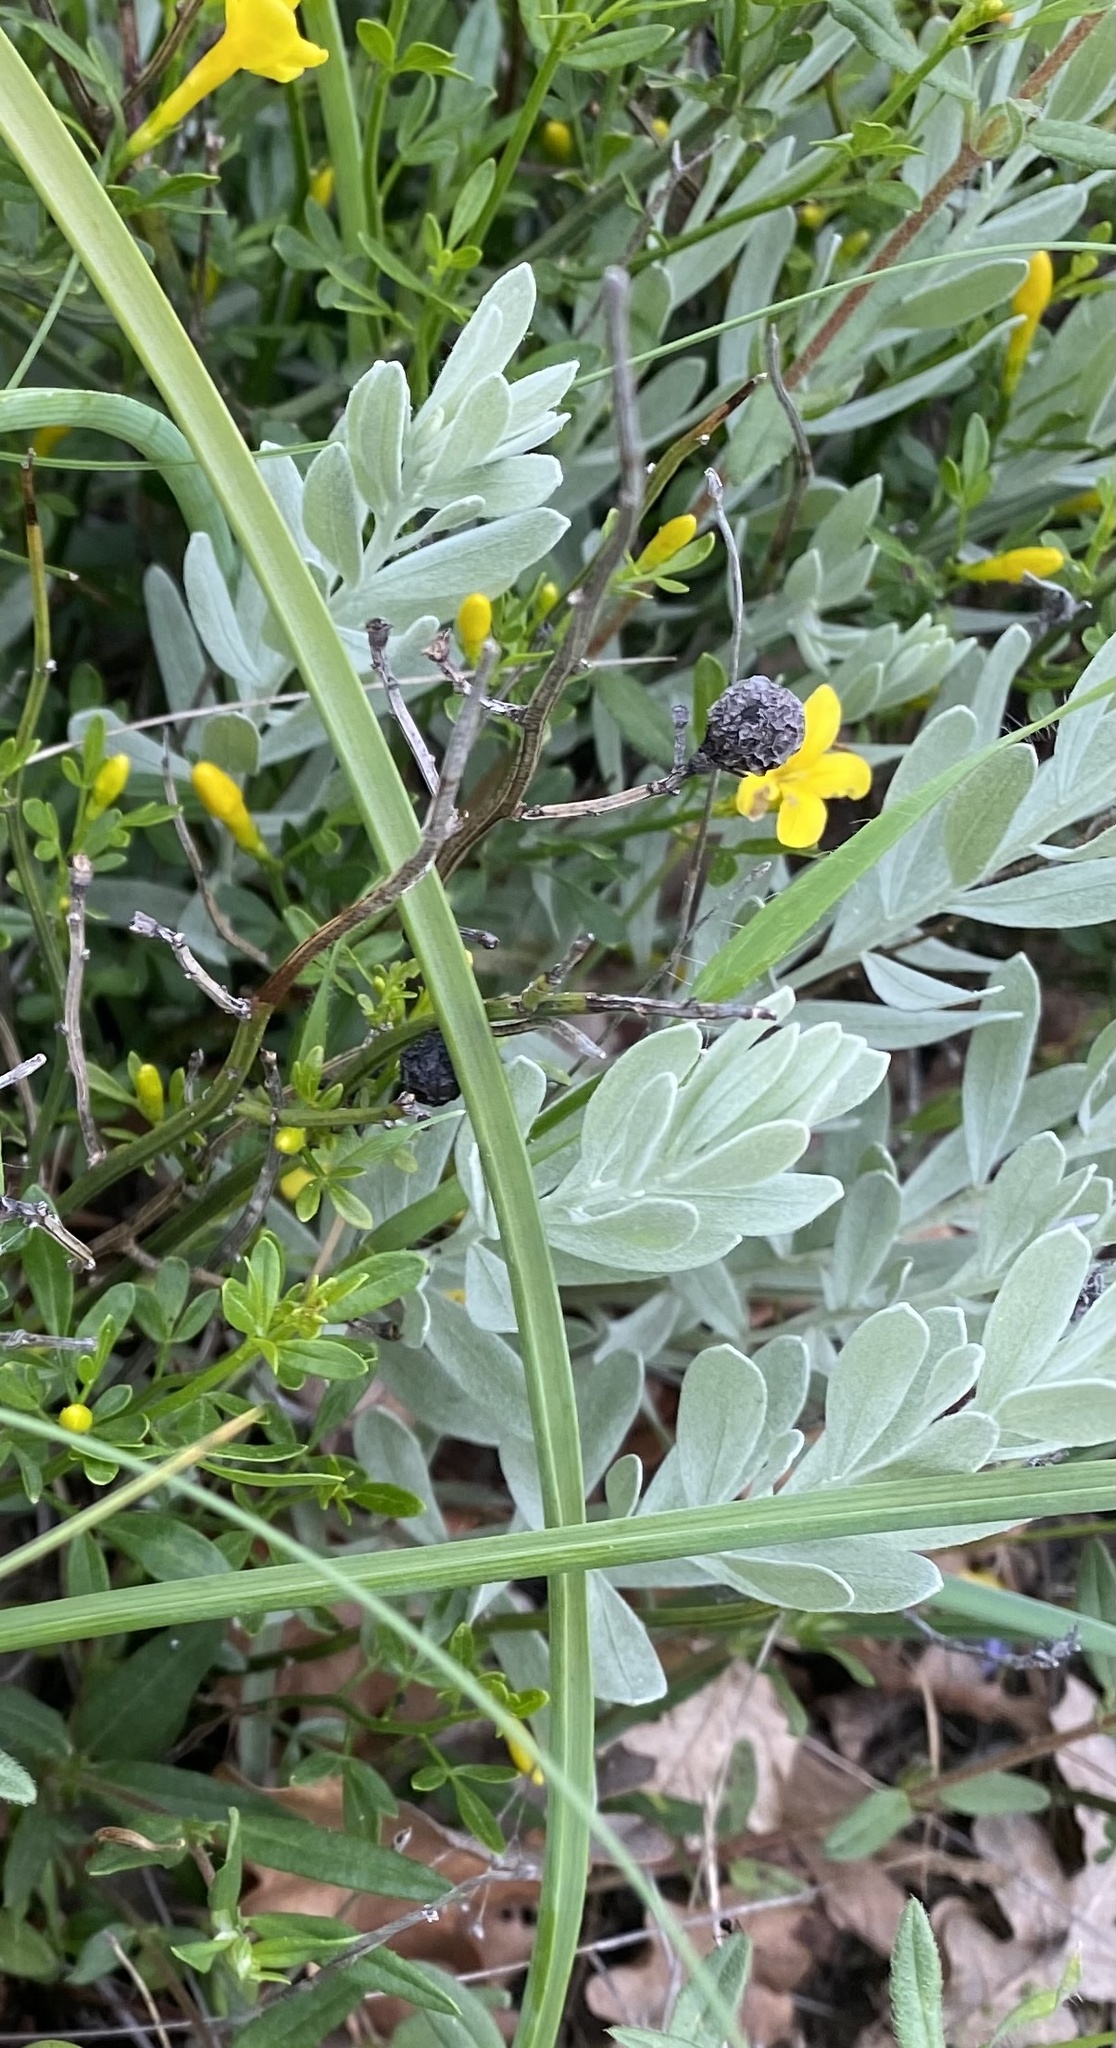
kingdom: Plantae
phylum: Tracheophyta
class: Magnoliopsida
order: Asterales
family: Asteraceae
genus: Galatella
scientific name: Galatella villosa
